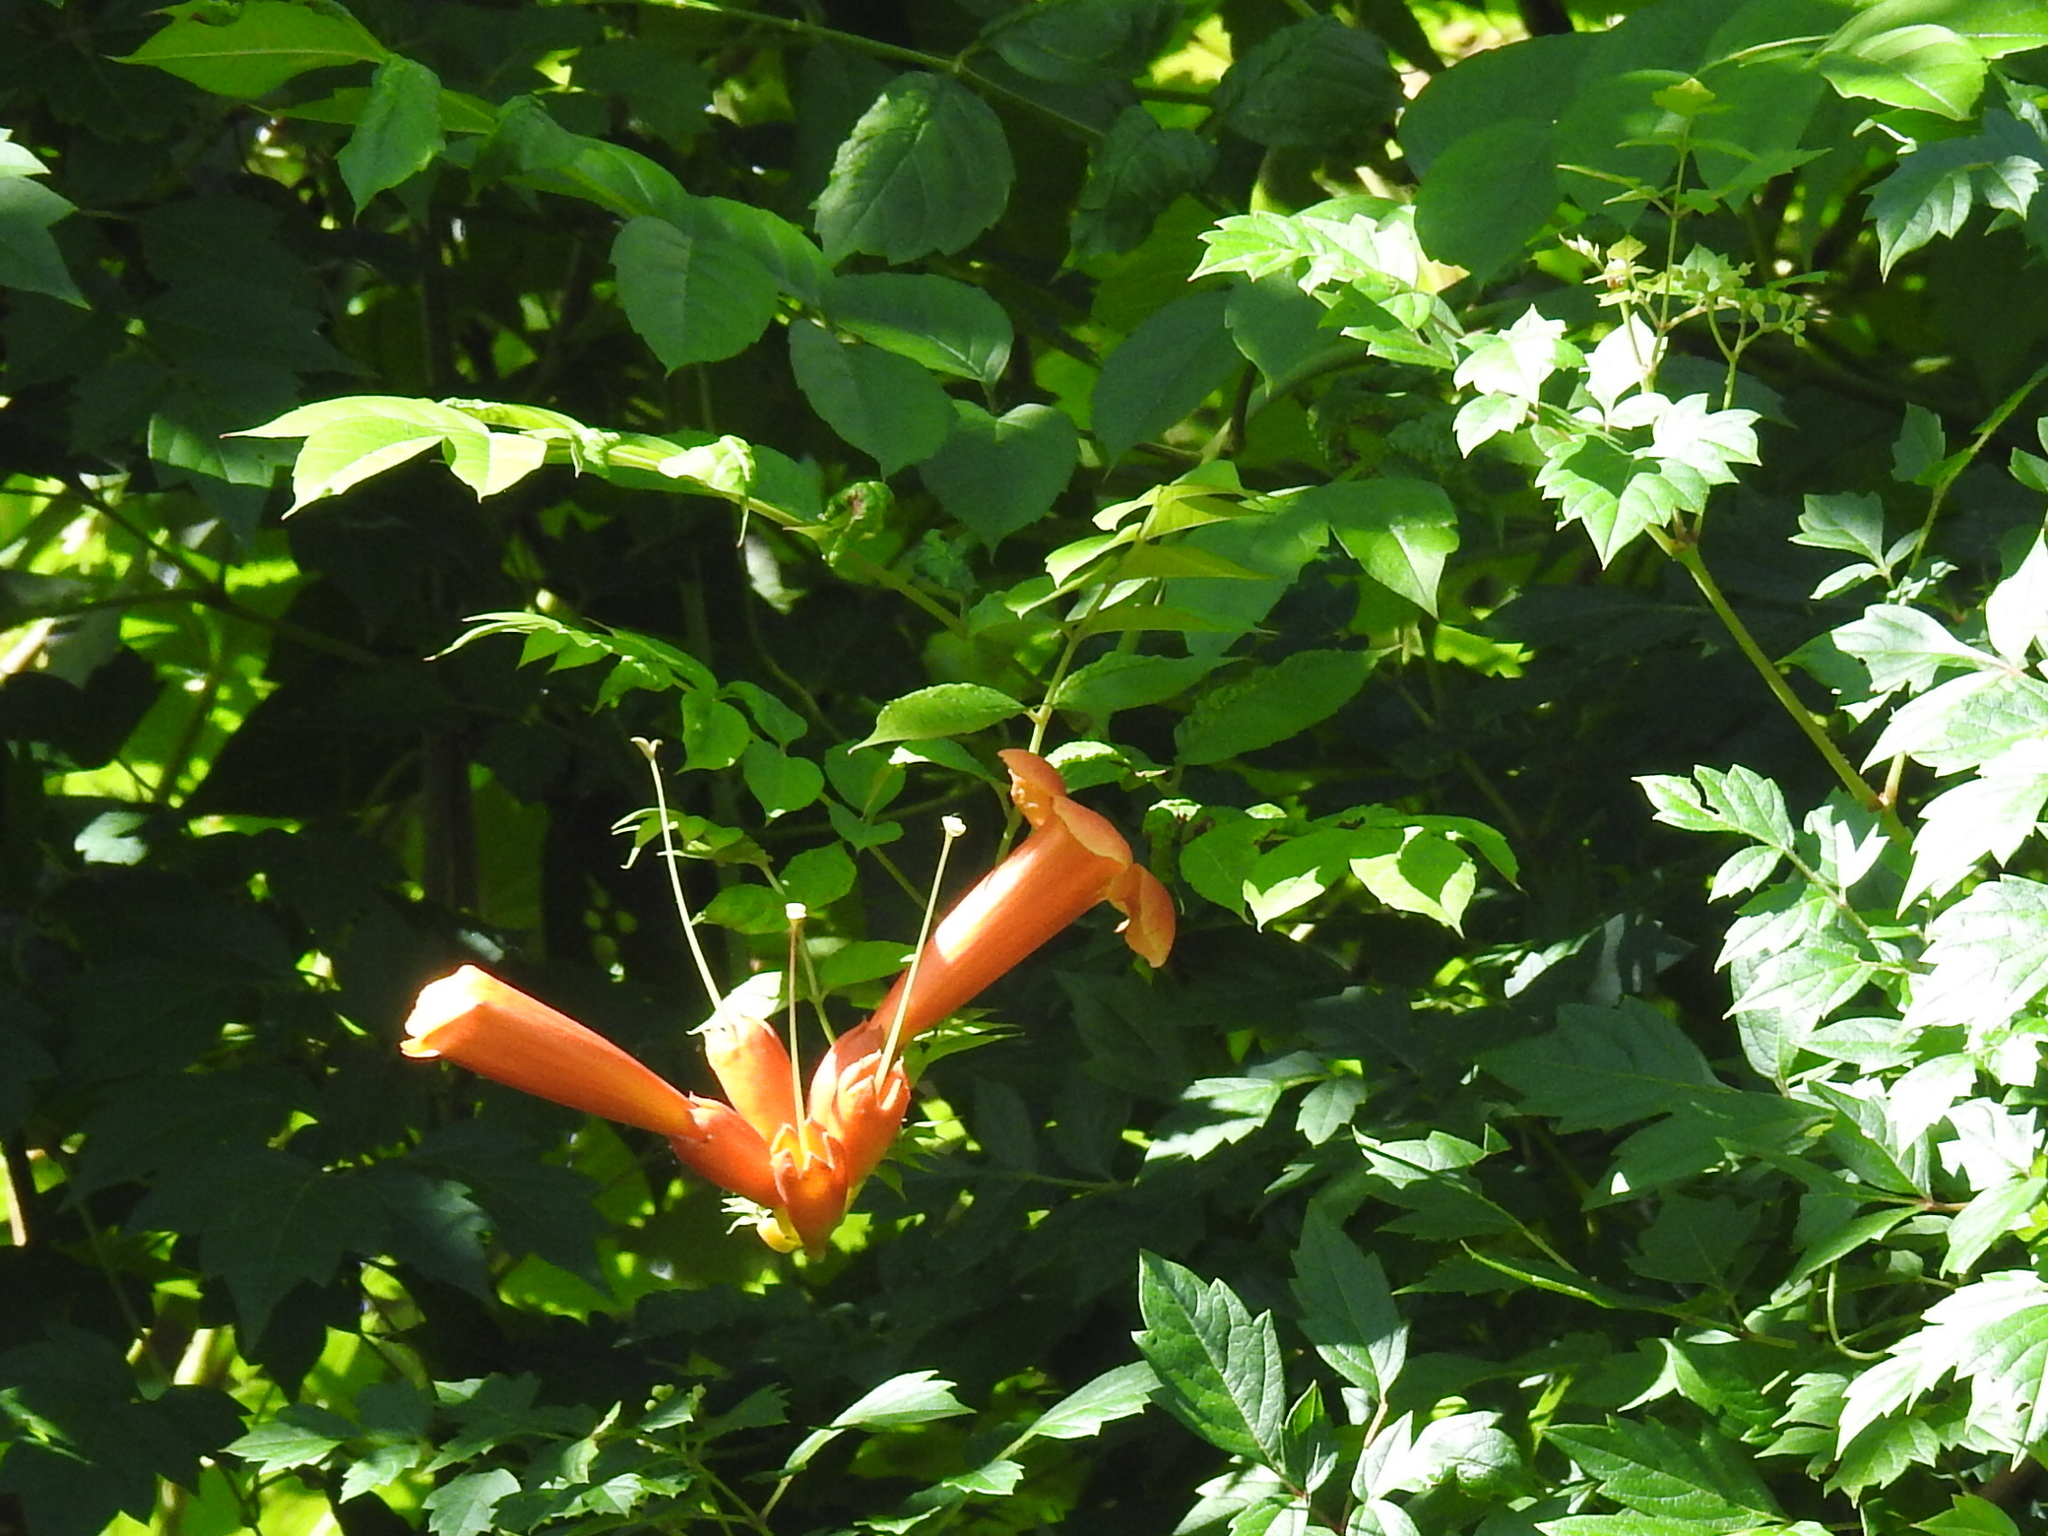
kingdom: Plantae
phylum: Tracheophyta
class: Magnoliopsida
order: Lamiales
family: Bignoniaceae
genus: Campsis
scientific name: Campsis radicans
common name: Trumpet-creeper
